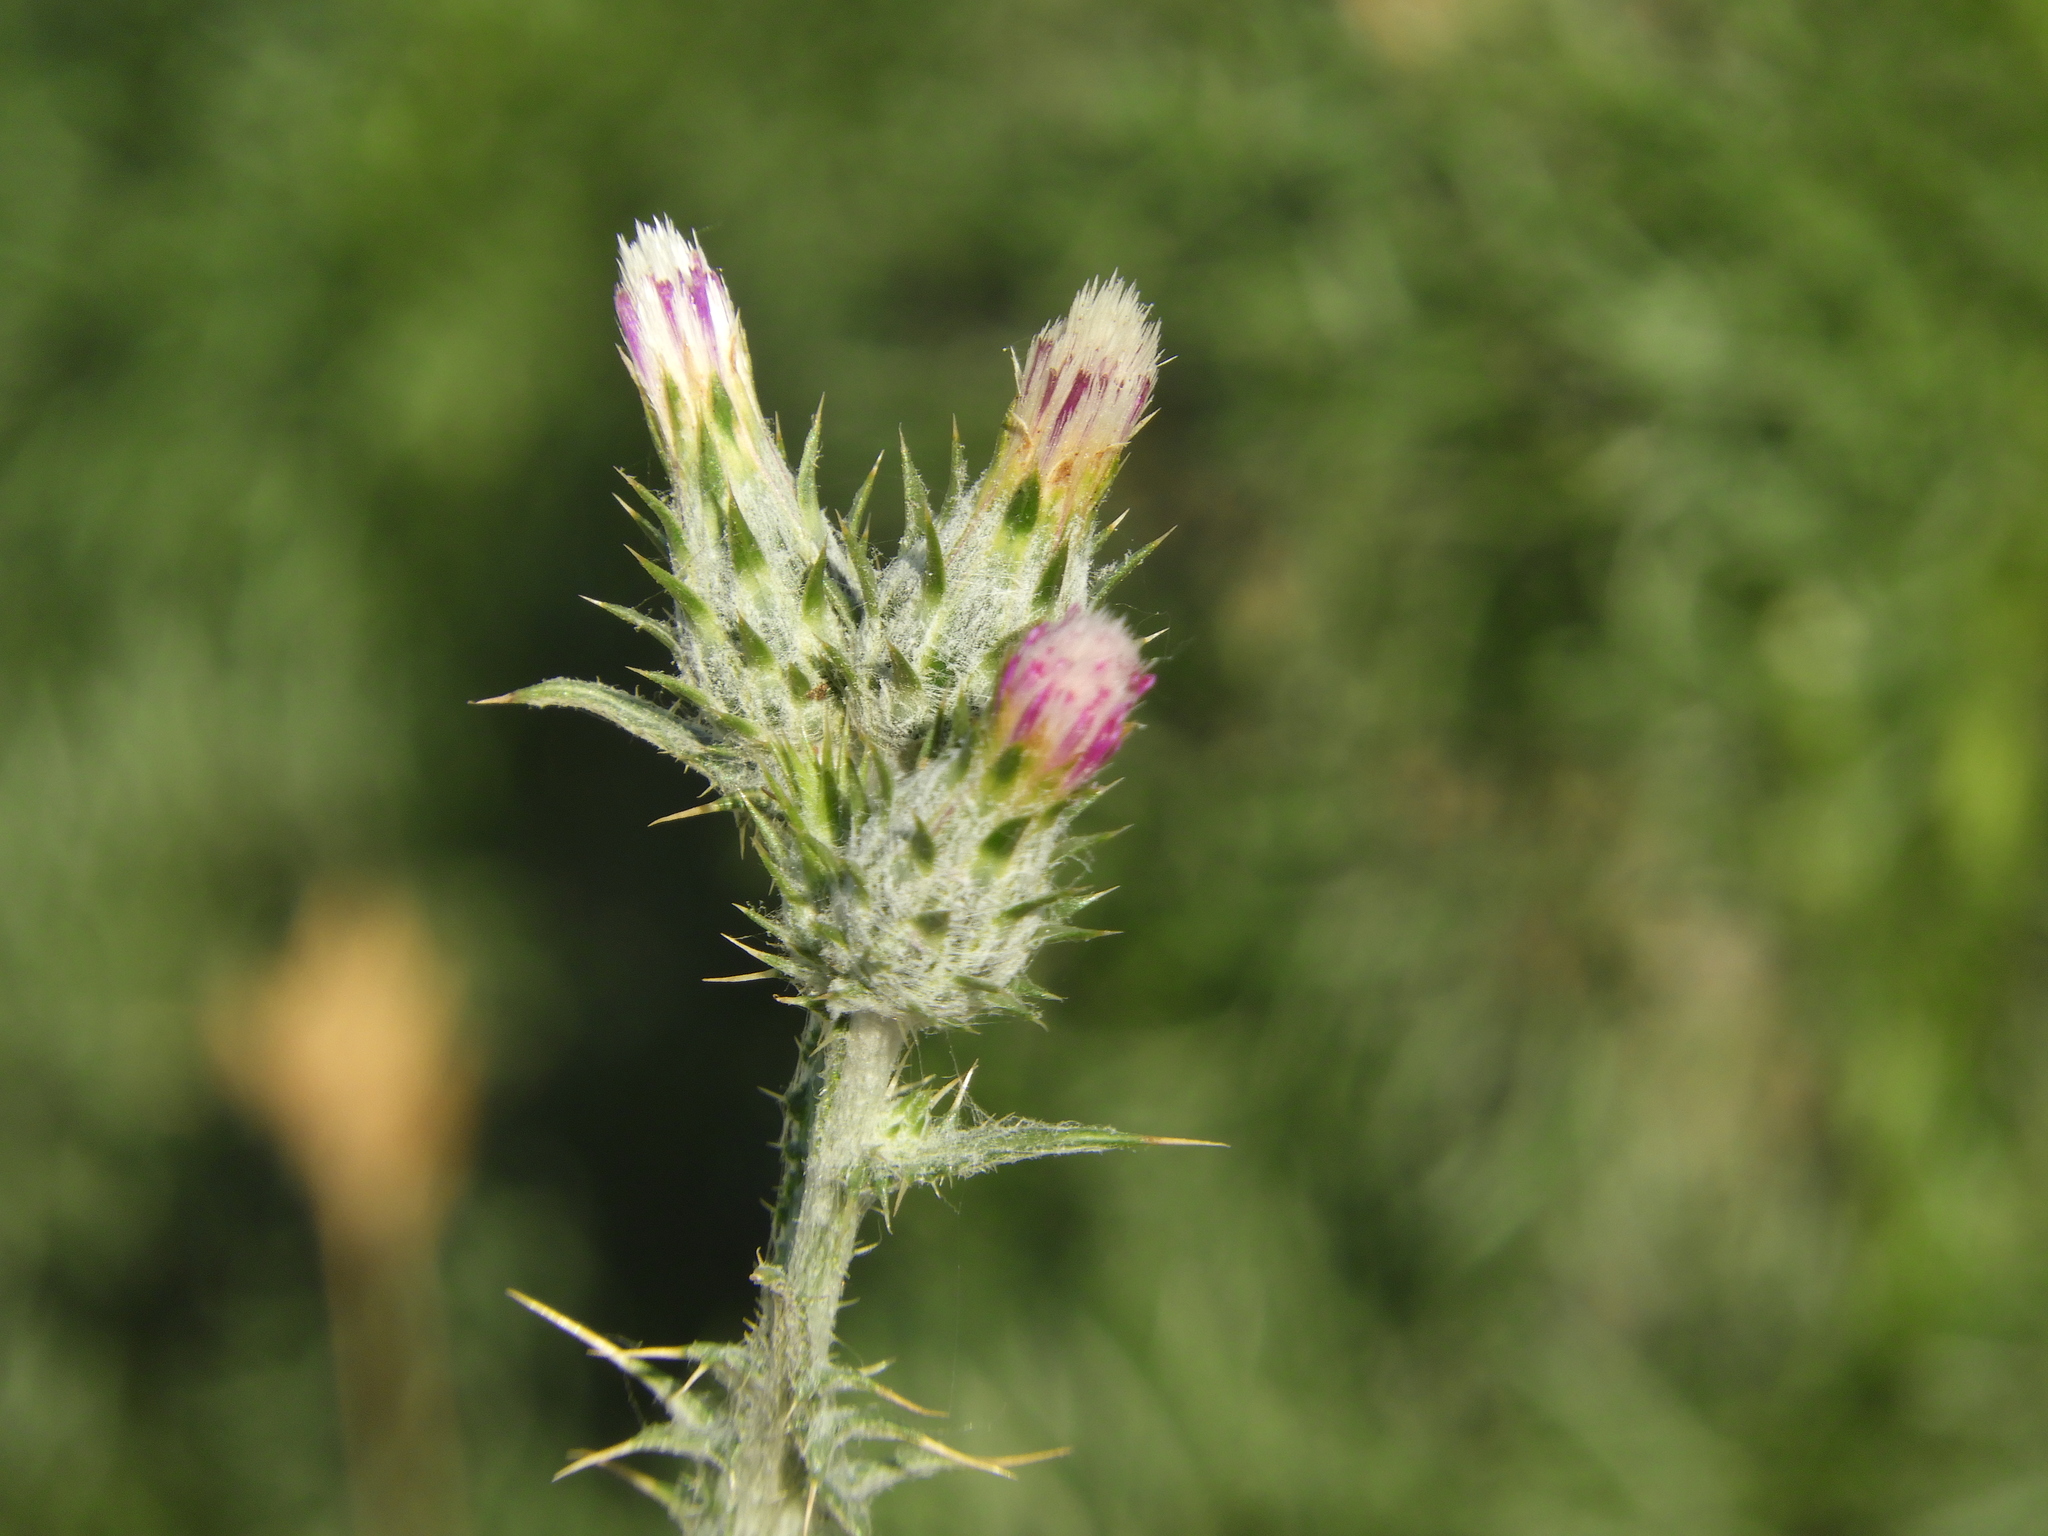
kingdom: Plantae
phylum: Tracheophyta
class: Magnoliopsida
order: Asterales
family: Asteraceae
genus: Carduus
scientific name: Carduus pycnocephalus
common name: Plymouth thistle
